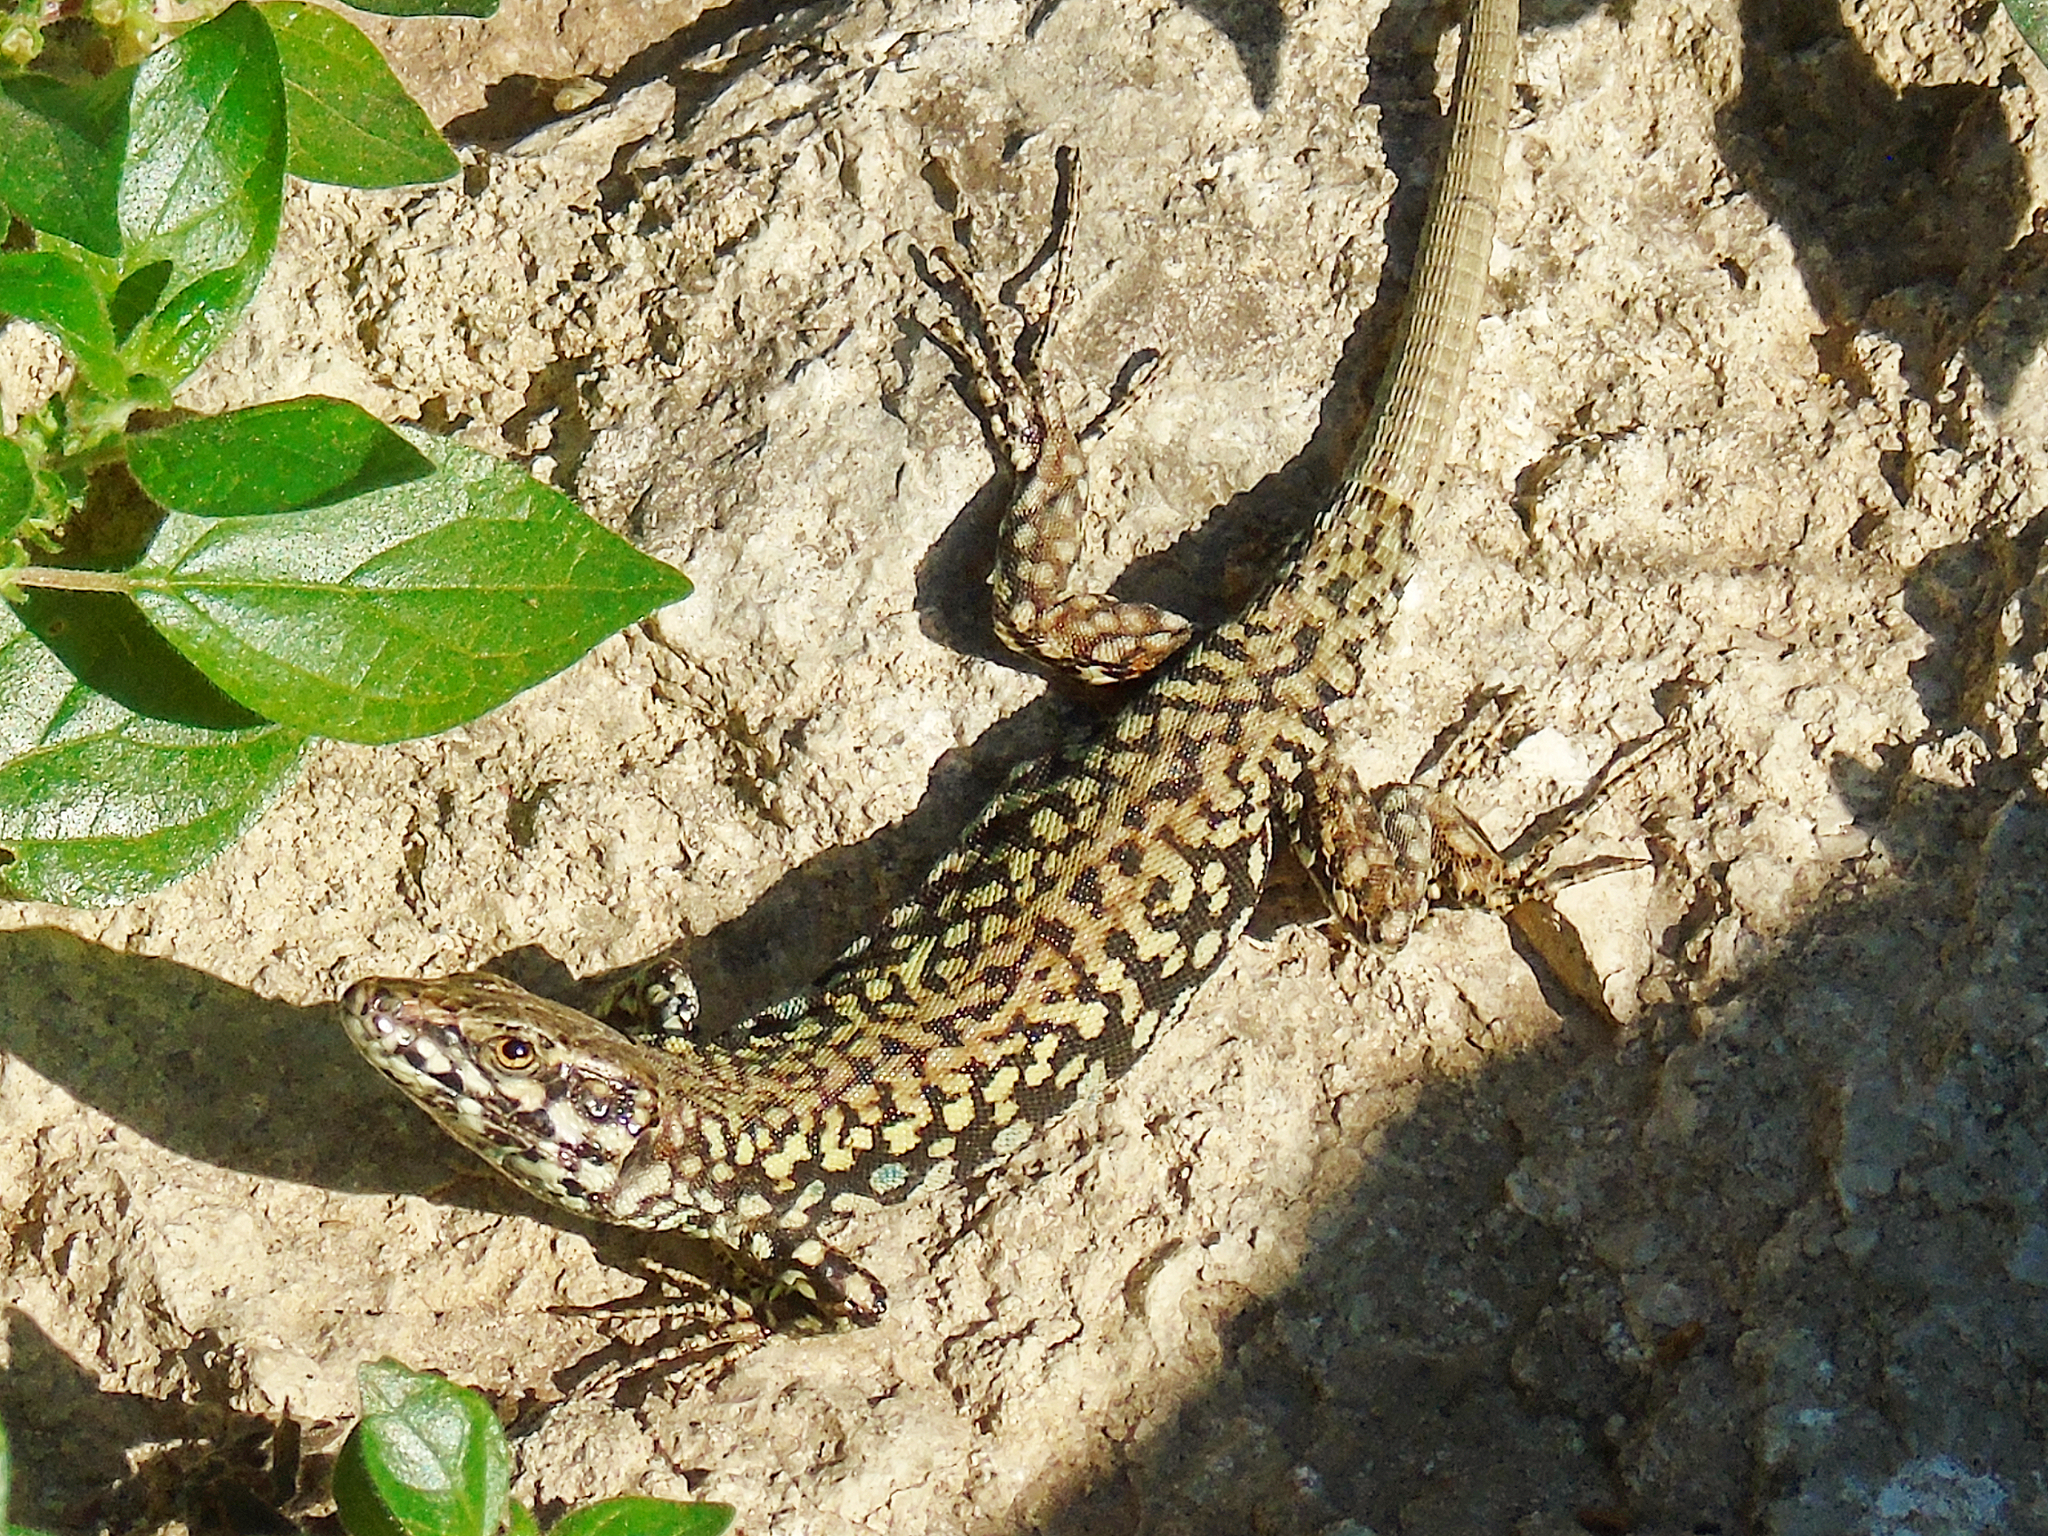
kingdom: Animalia
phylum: Chordata
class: Squamata
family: Lacertidae
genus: Podarcis
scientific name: Podarcis muralis
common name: Common wall lizard
